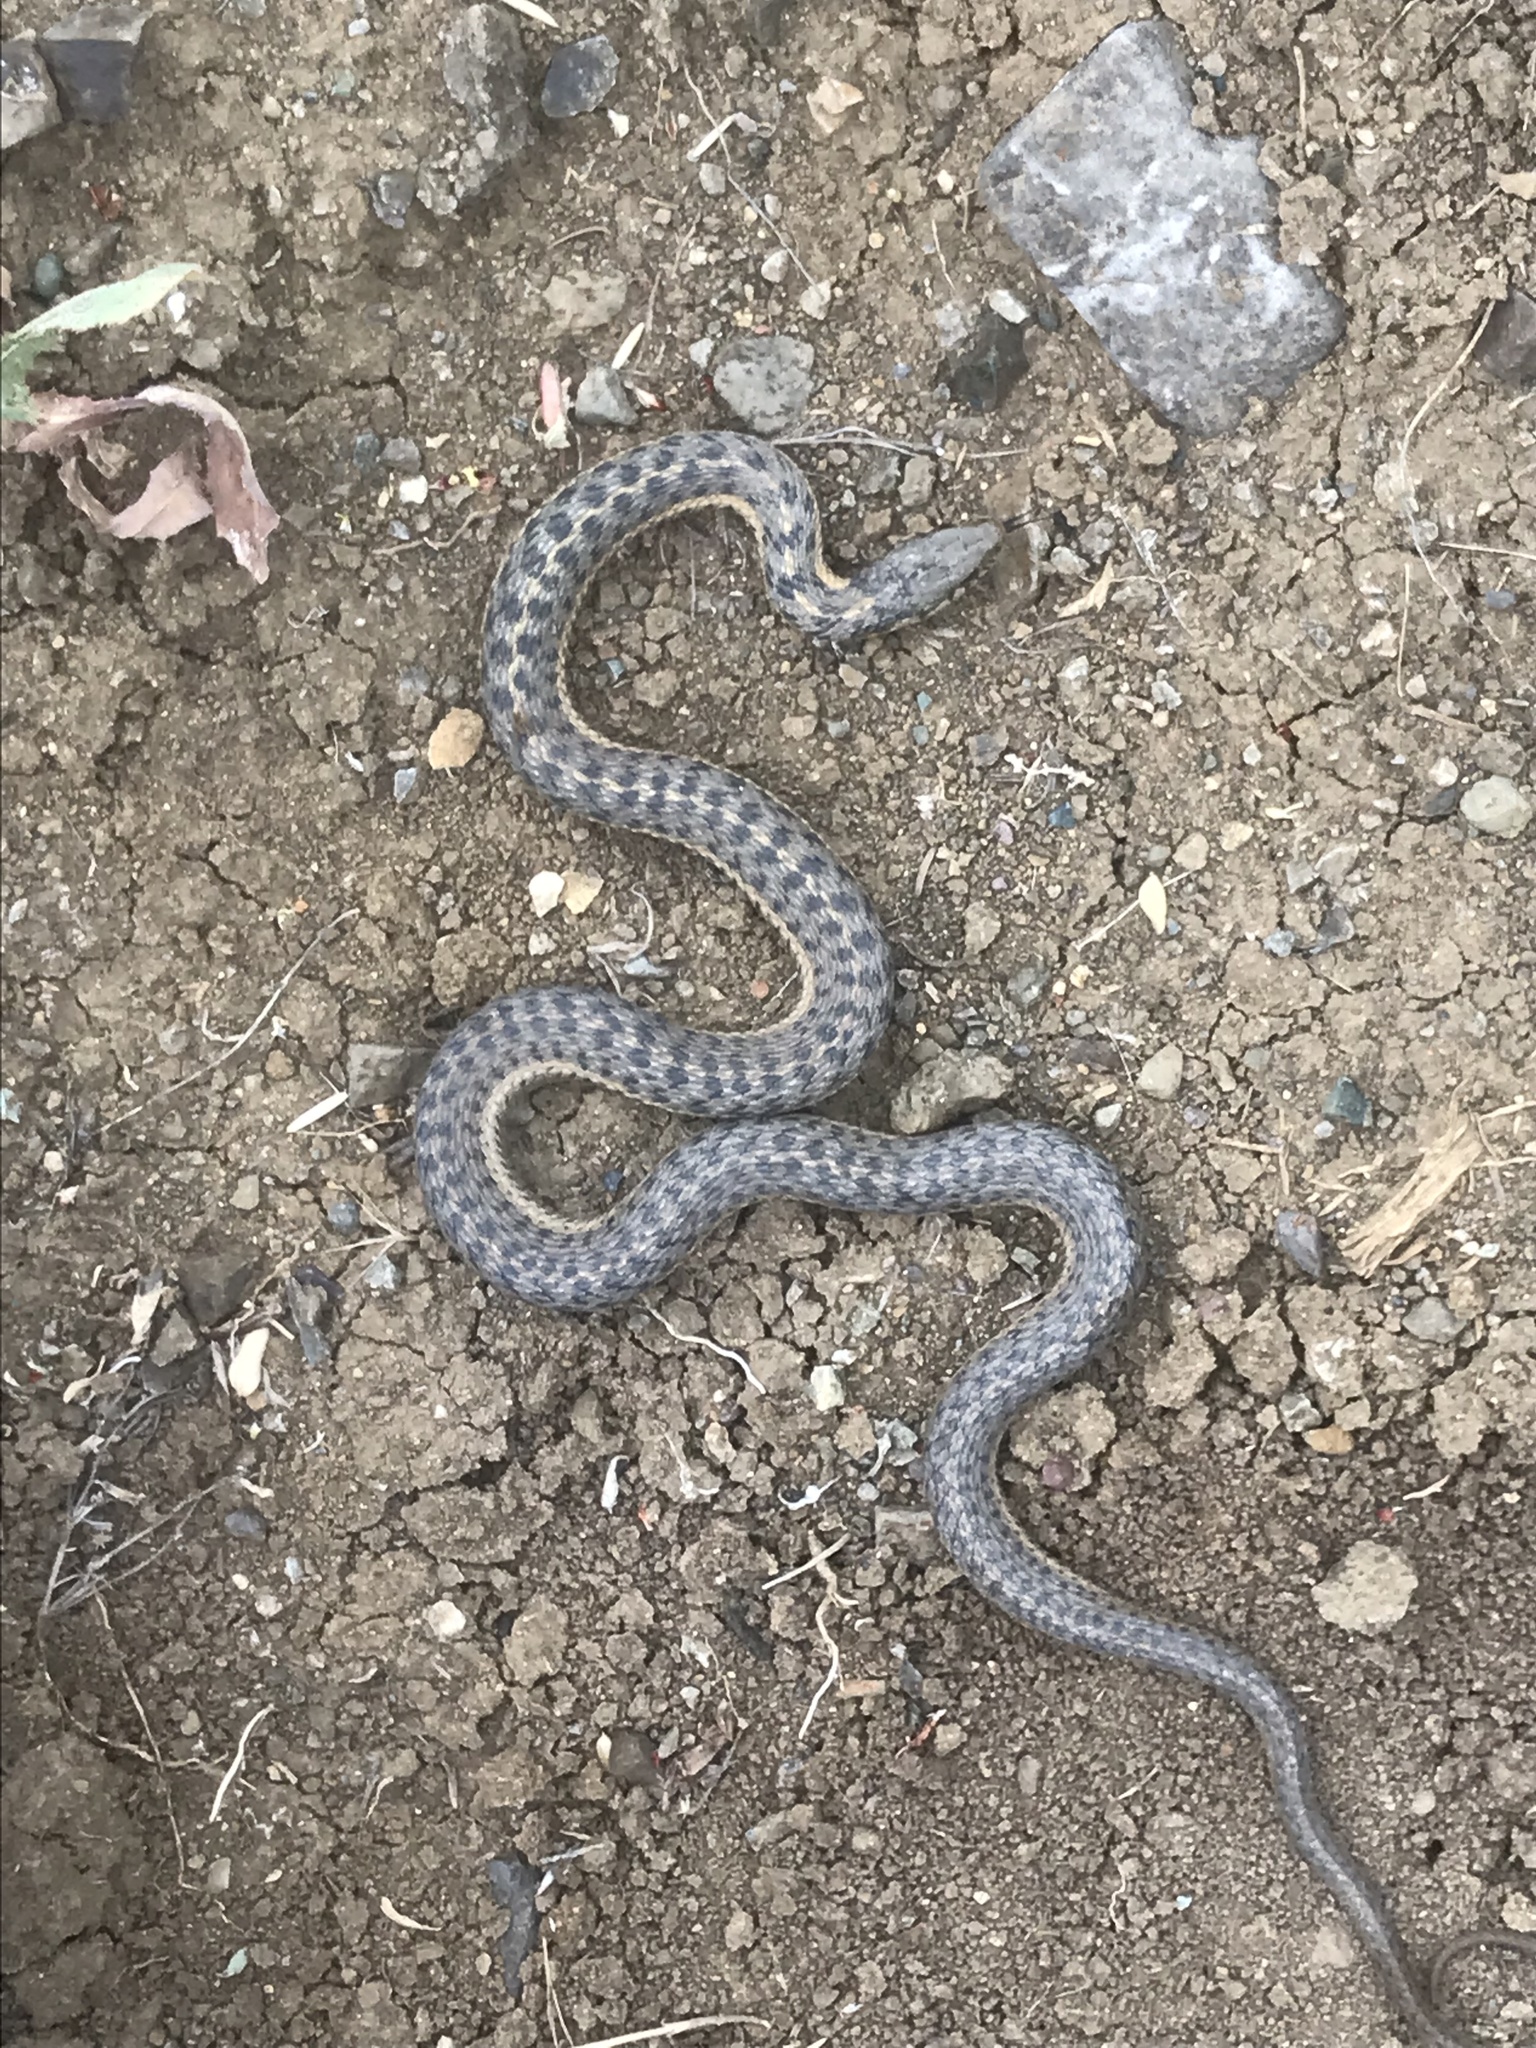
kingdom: Animalia
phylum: Chordata
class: Squamata
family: Colubridae
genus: Thamnophis
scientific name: Thamnophis elegans
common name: Western terrestrial garter snake
